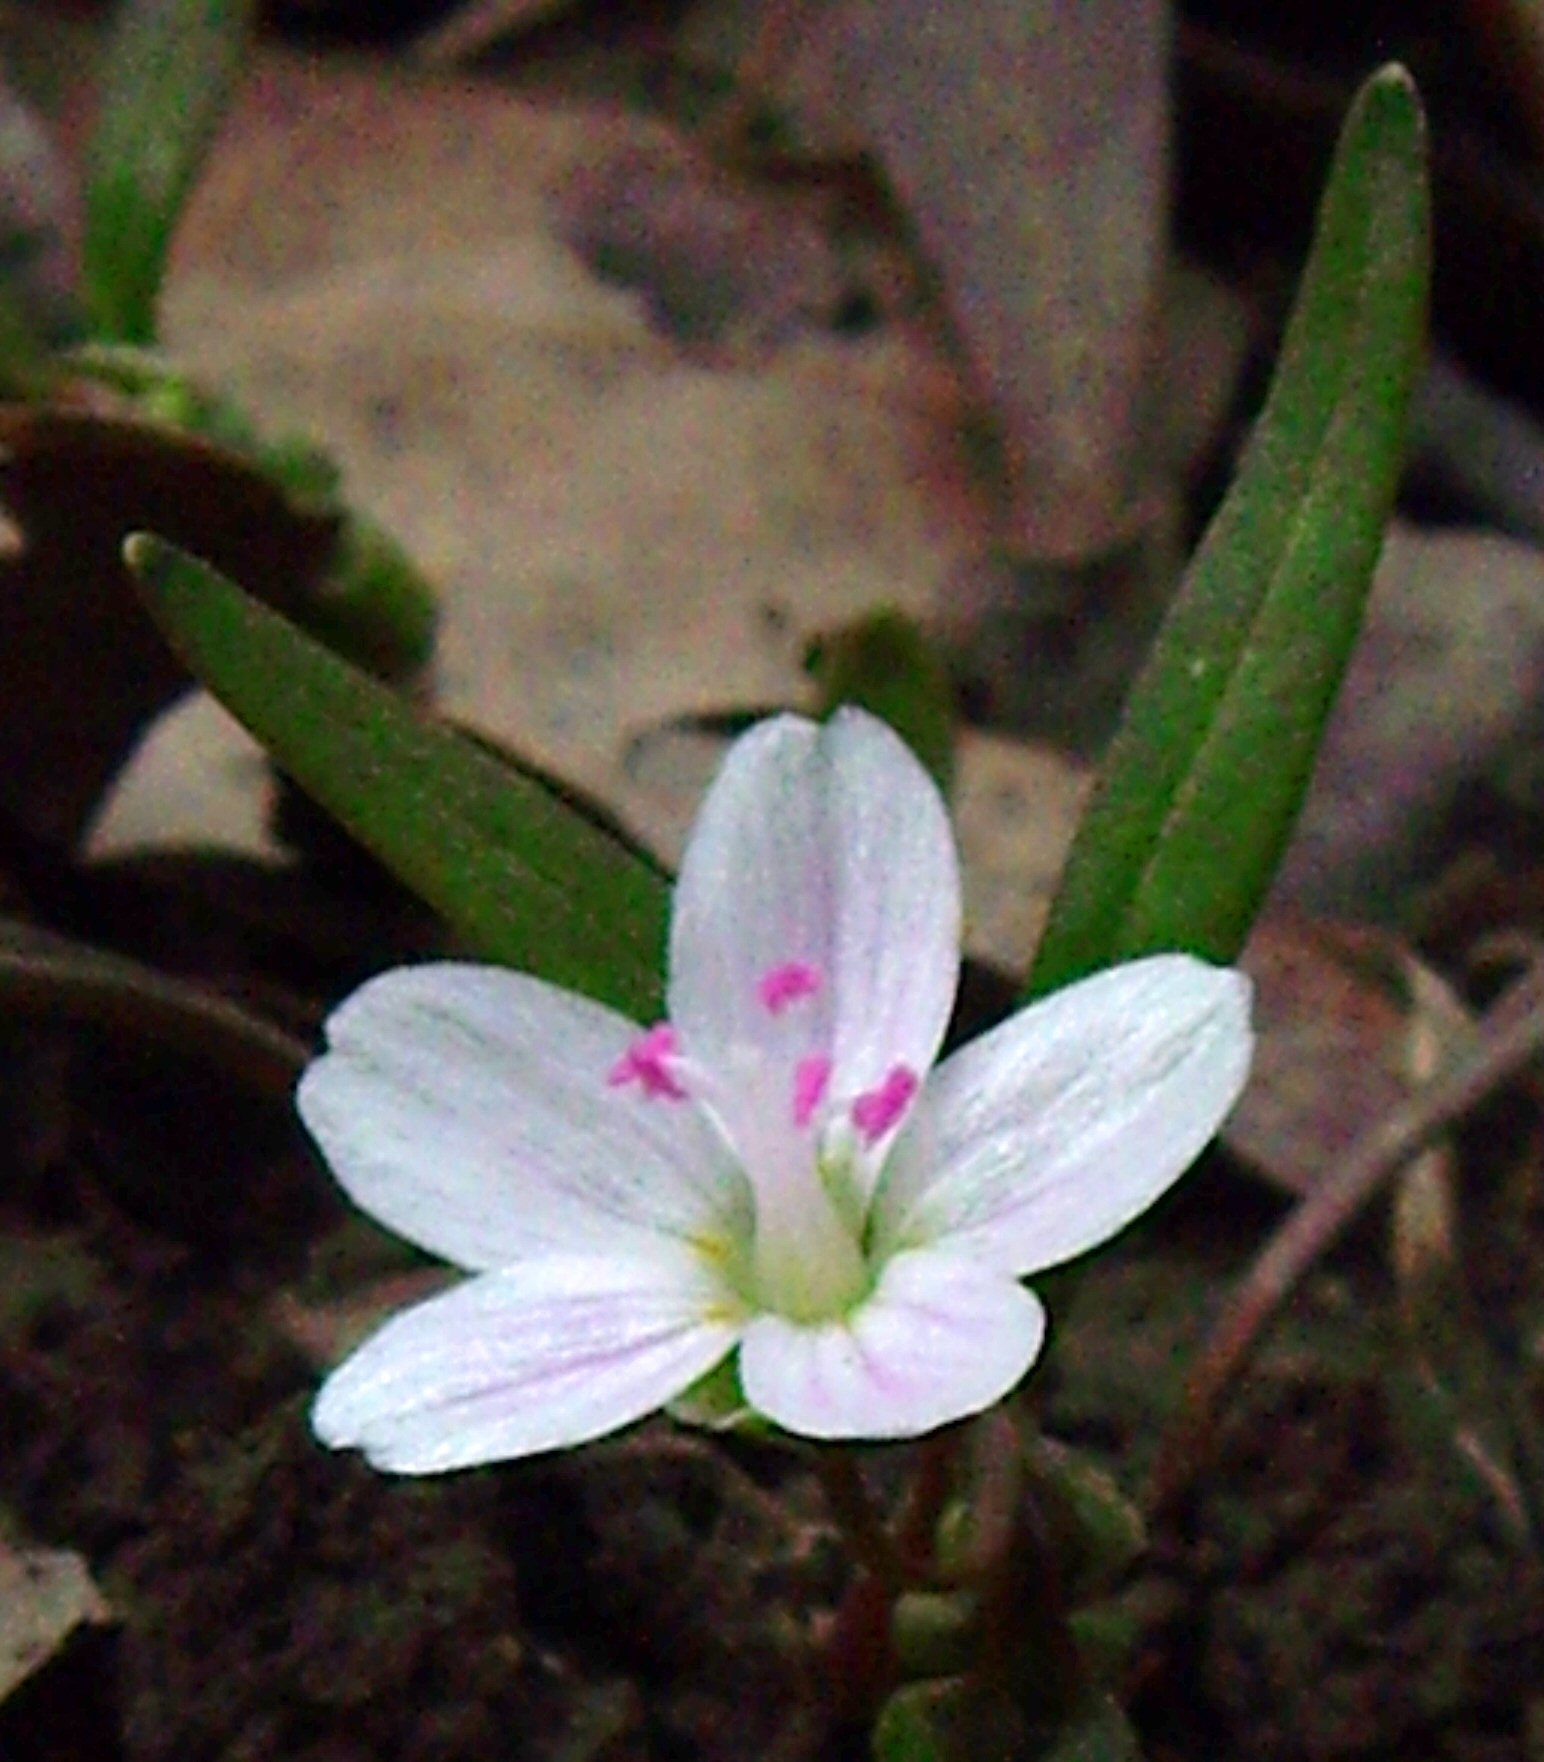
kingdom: Plantae
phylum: Tracheophyta
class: Magnoliopsida
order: Caryophyllales
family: Montiaceae
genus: Claytonia
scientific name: Claytonia virginica
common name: Virginia springbeauty
